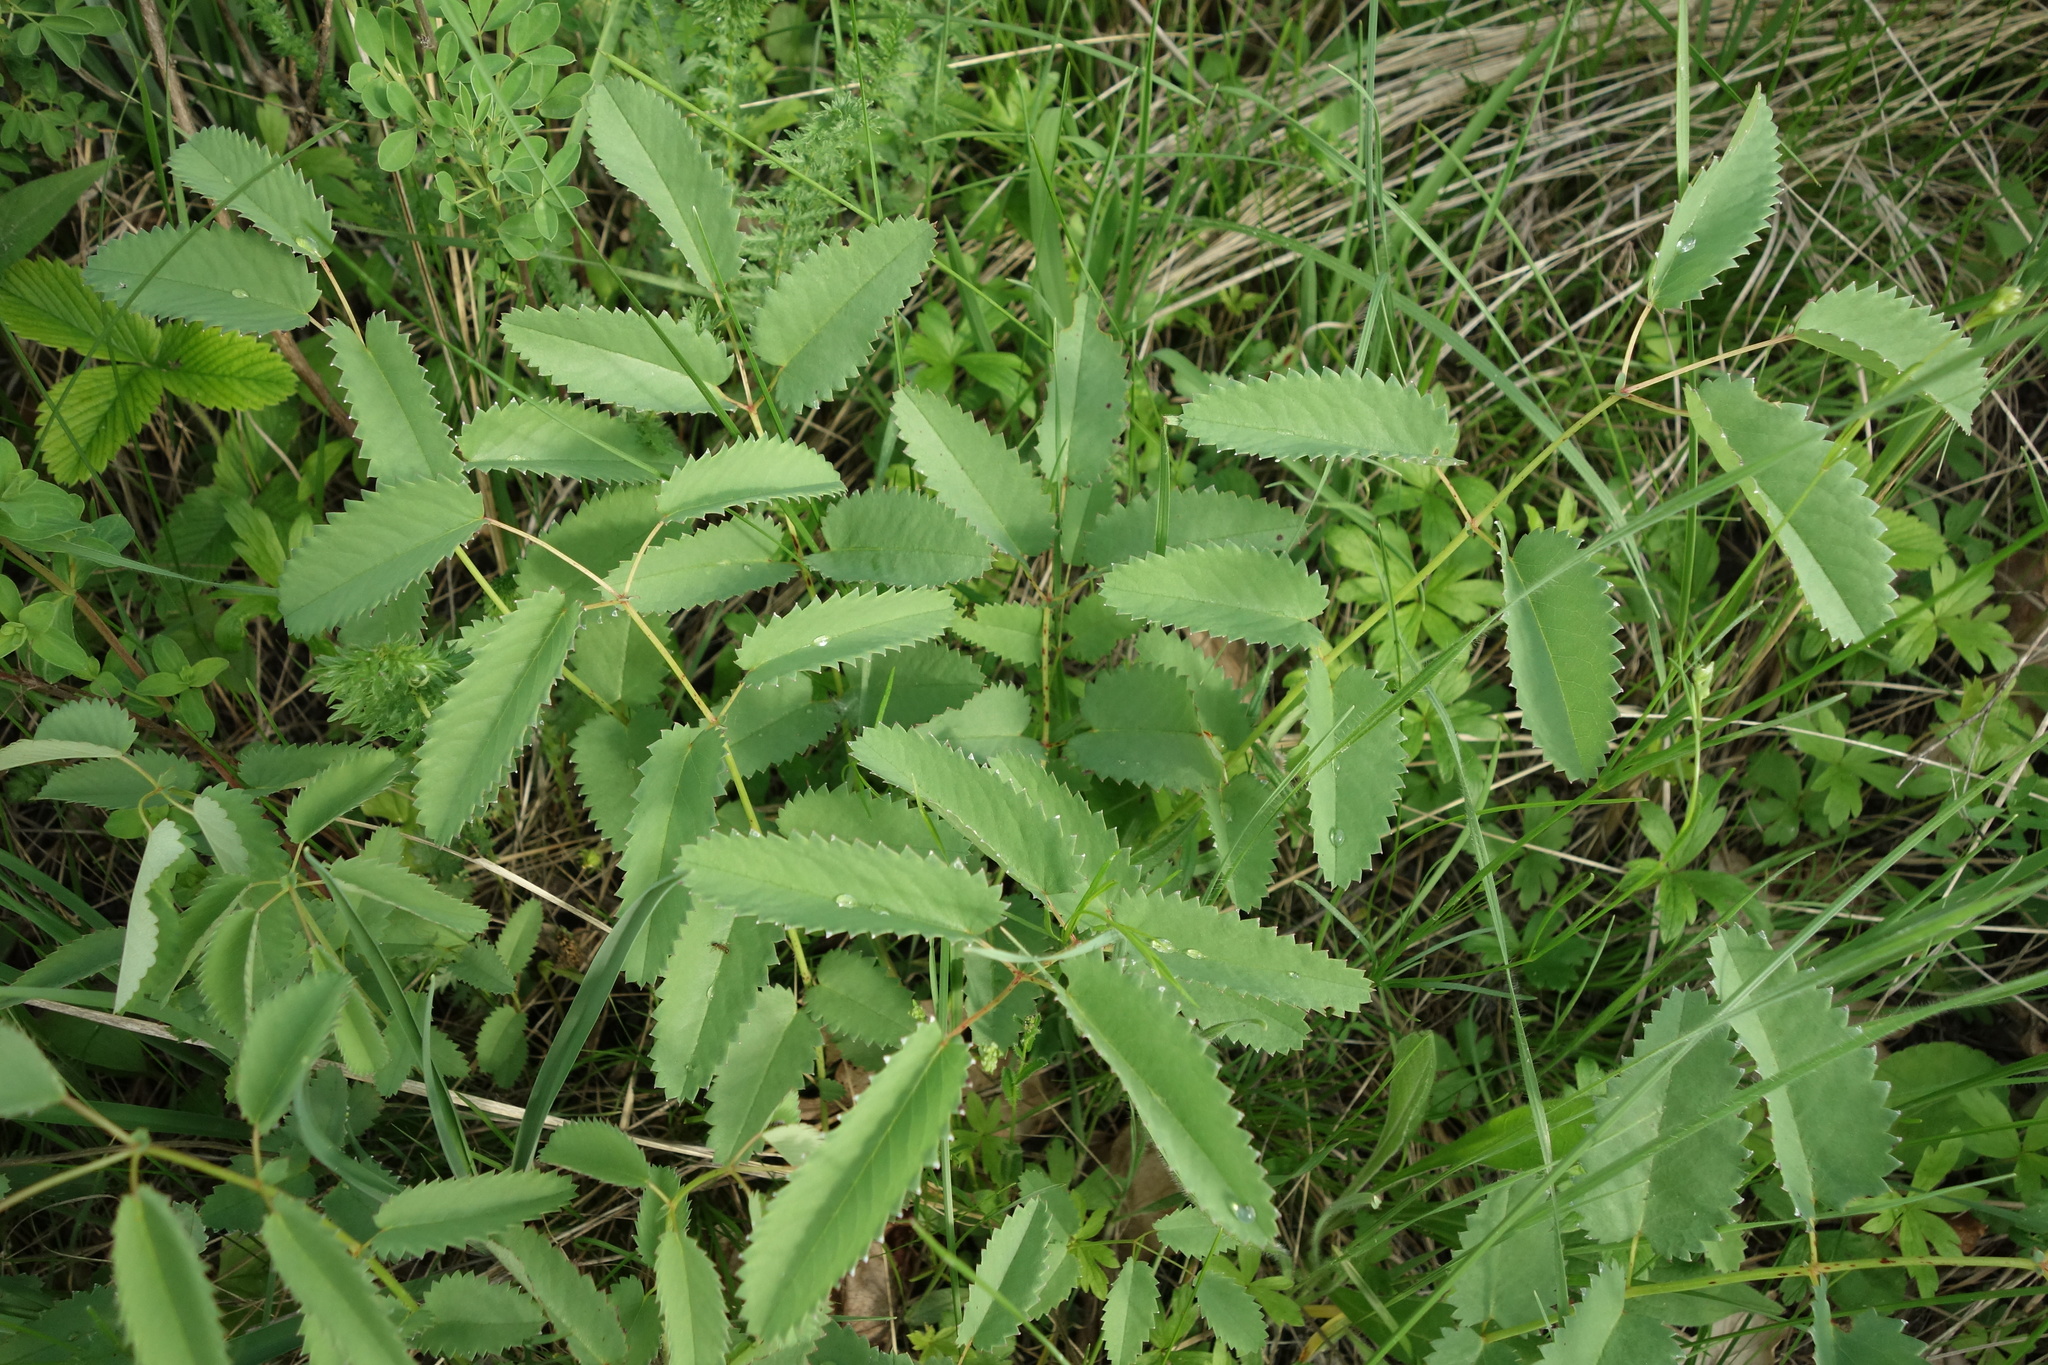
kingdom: Plantae
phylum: Tracheophyta
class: Magnoliopsida
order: Rosales
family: Rosaceae
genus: Sanguisorba
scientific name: Sanguisorba officinalis
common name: Great burnet
